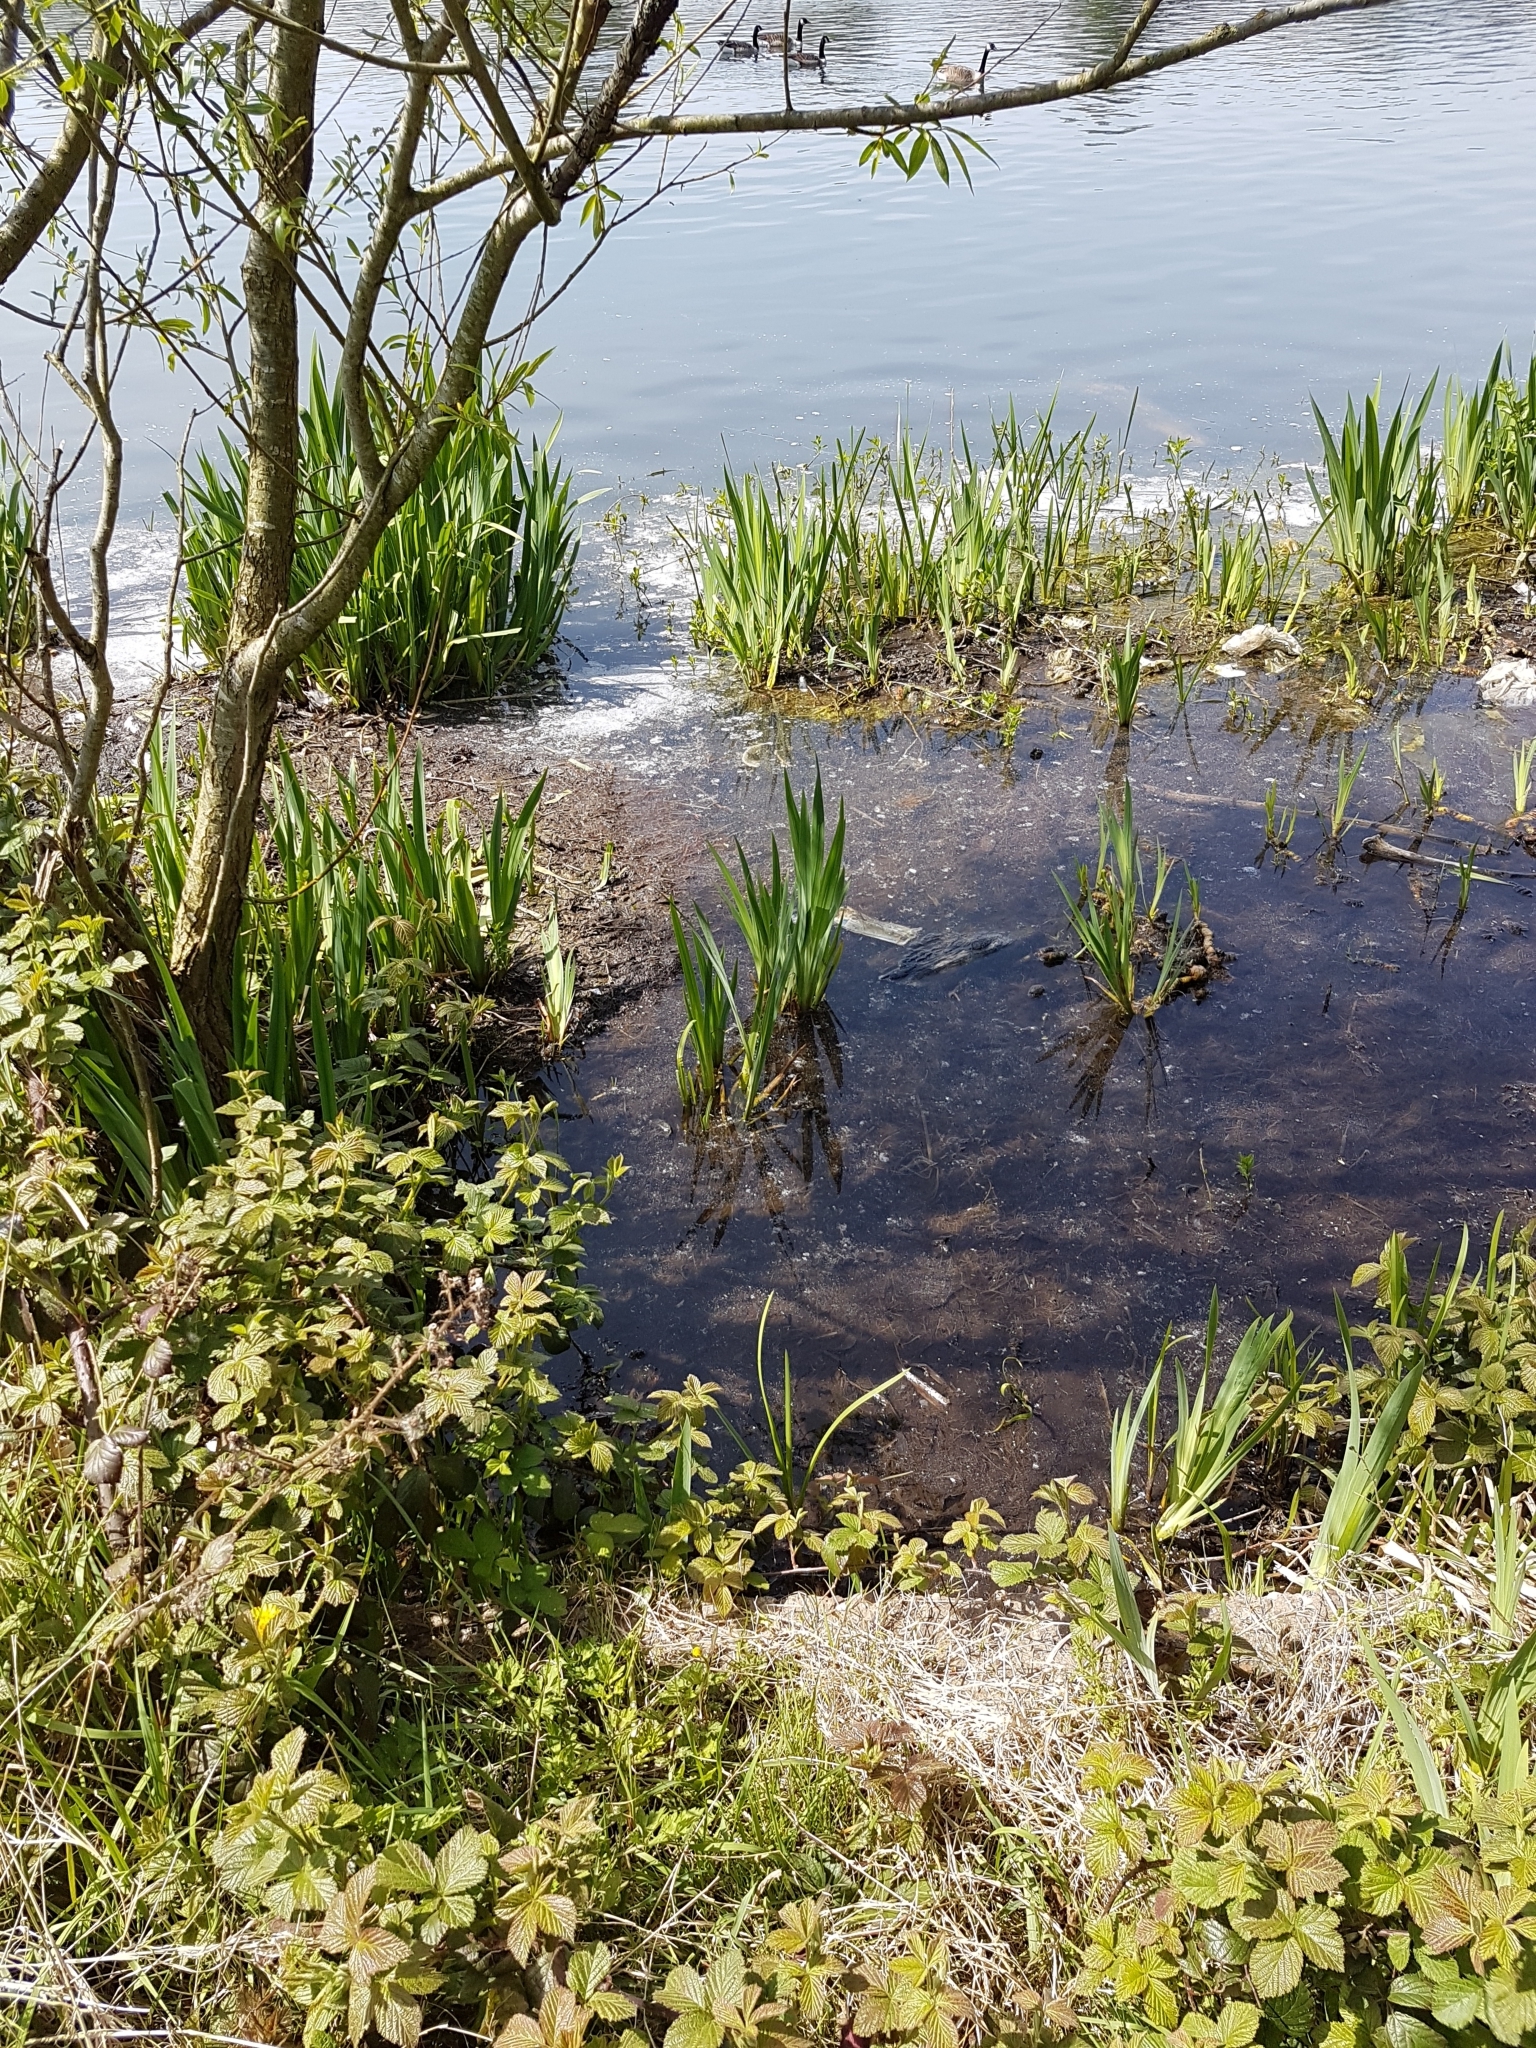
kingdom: Plantae
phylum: Tracheophyta
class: Liliopsida
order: Asparagales
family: Iridaceae
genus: Iris
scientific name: Iris pseudacorus
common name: Yellow flag
